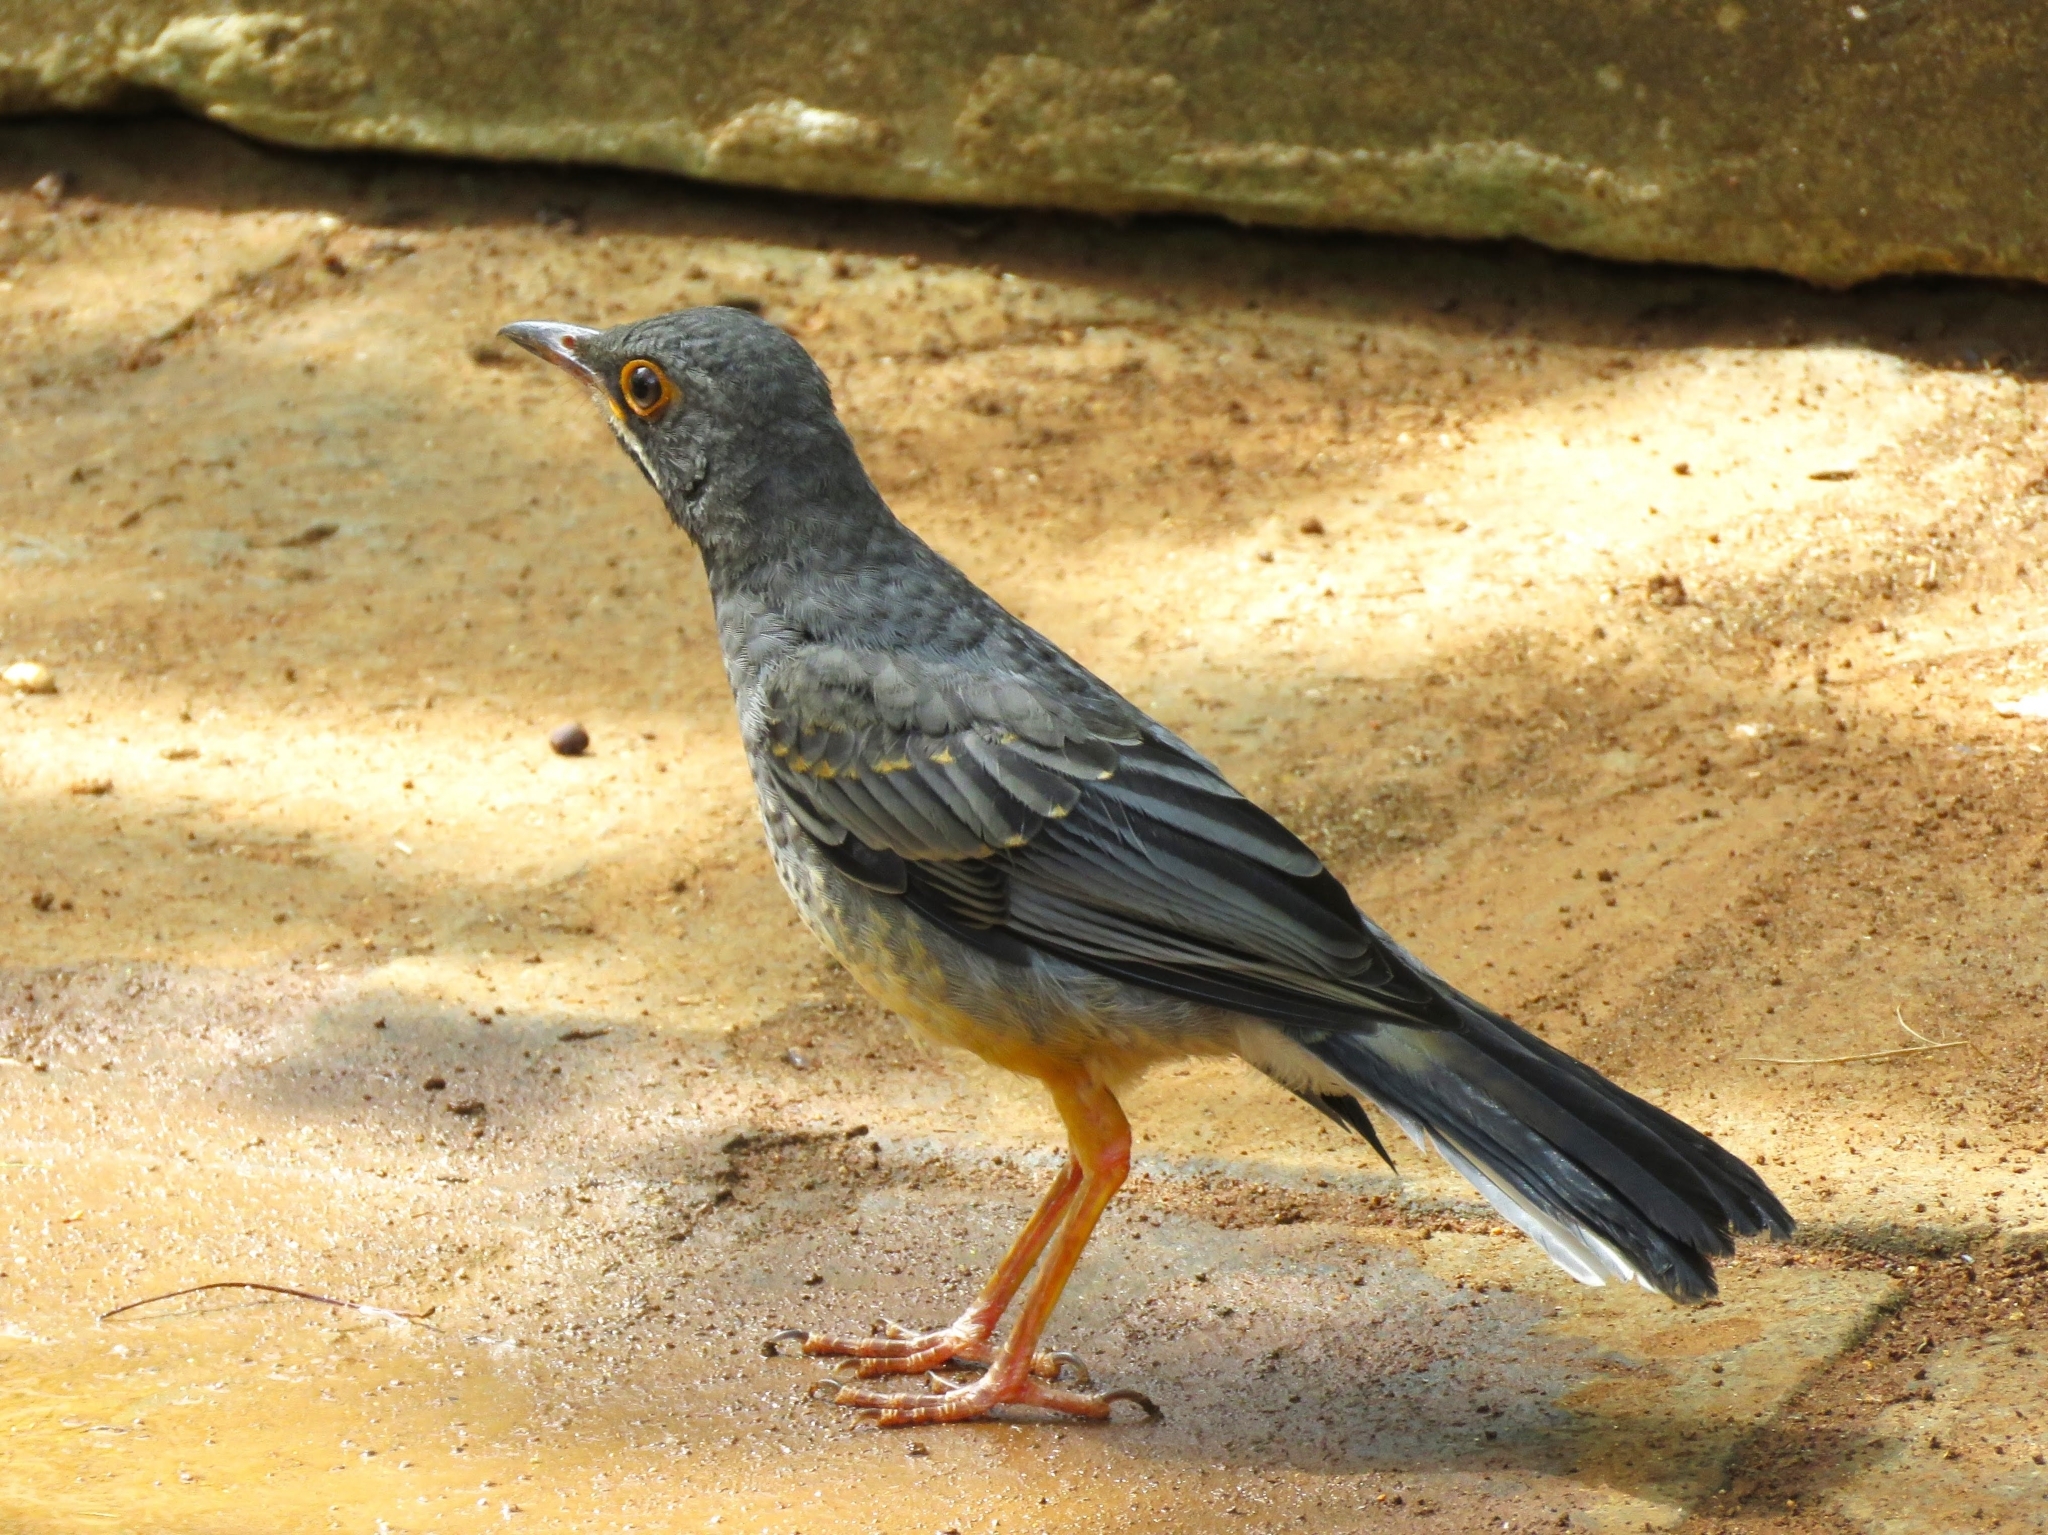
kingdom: Animalia
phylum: Chordata
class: Aves
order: Passeriformes
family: Turdidae
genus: Turdus
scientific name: Turdus plumbeus
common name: Red-legged thrush
